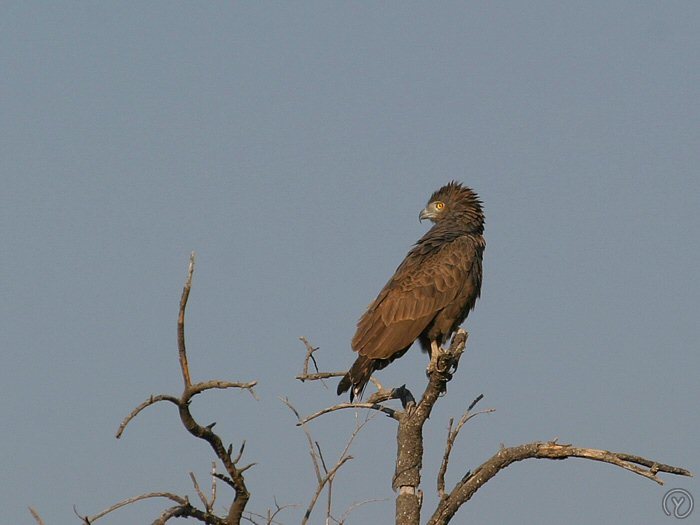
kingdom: Animalia
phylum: Chordata
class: Aves
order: Accipitriformes
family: Accipitridae
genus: Circaetus
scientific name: Circaetus cinereus
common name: Brown snake eagle
